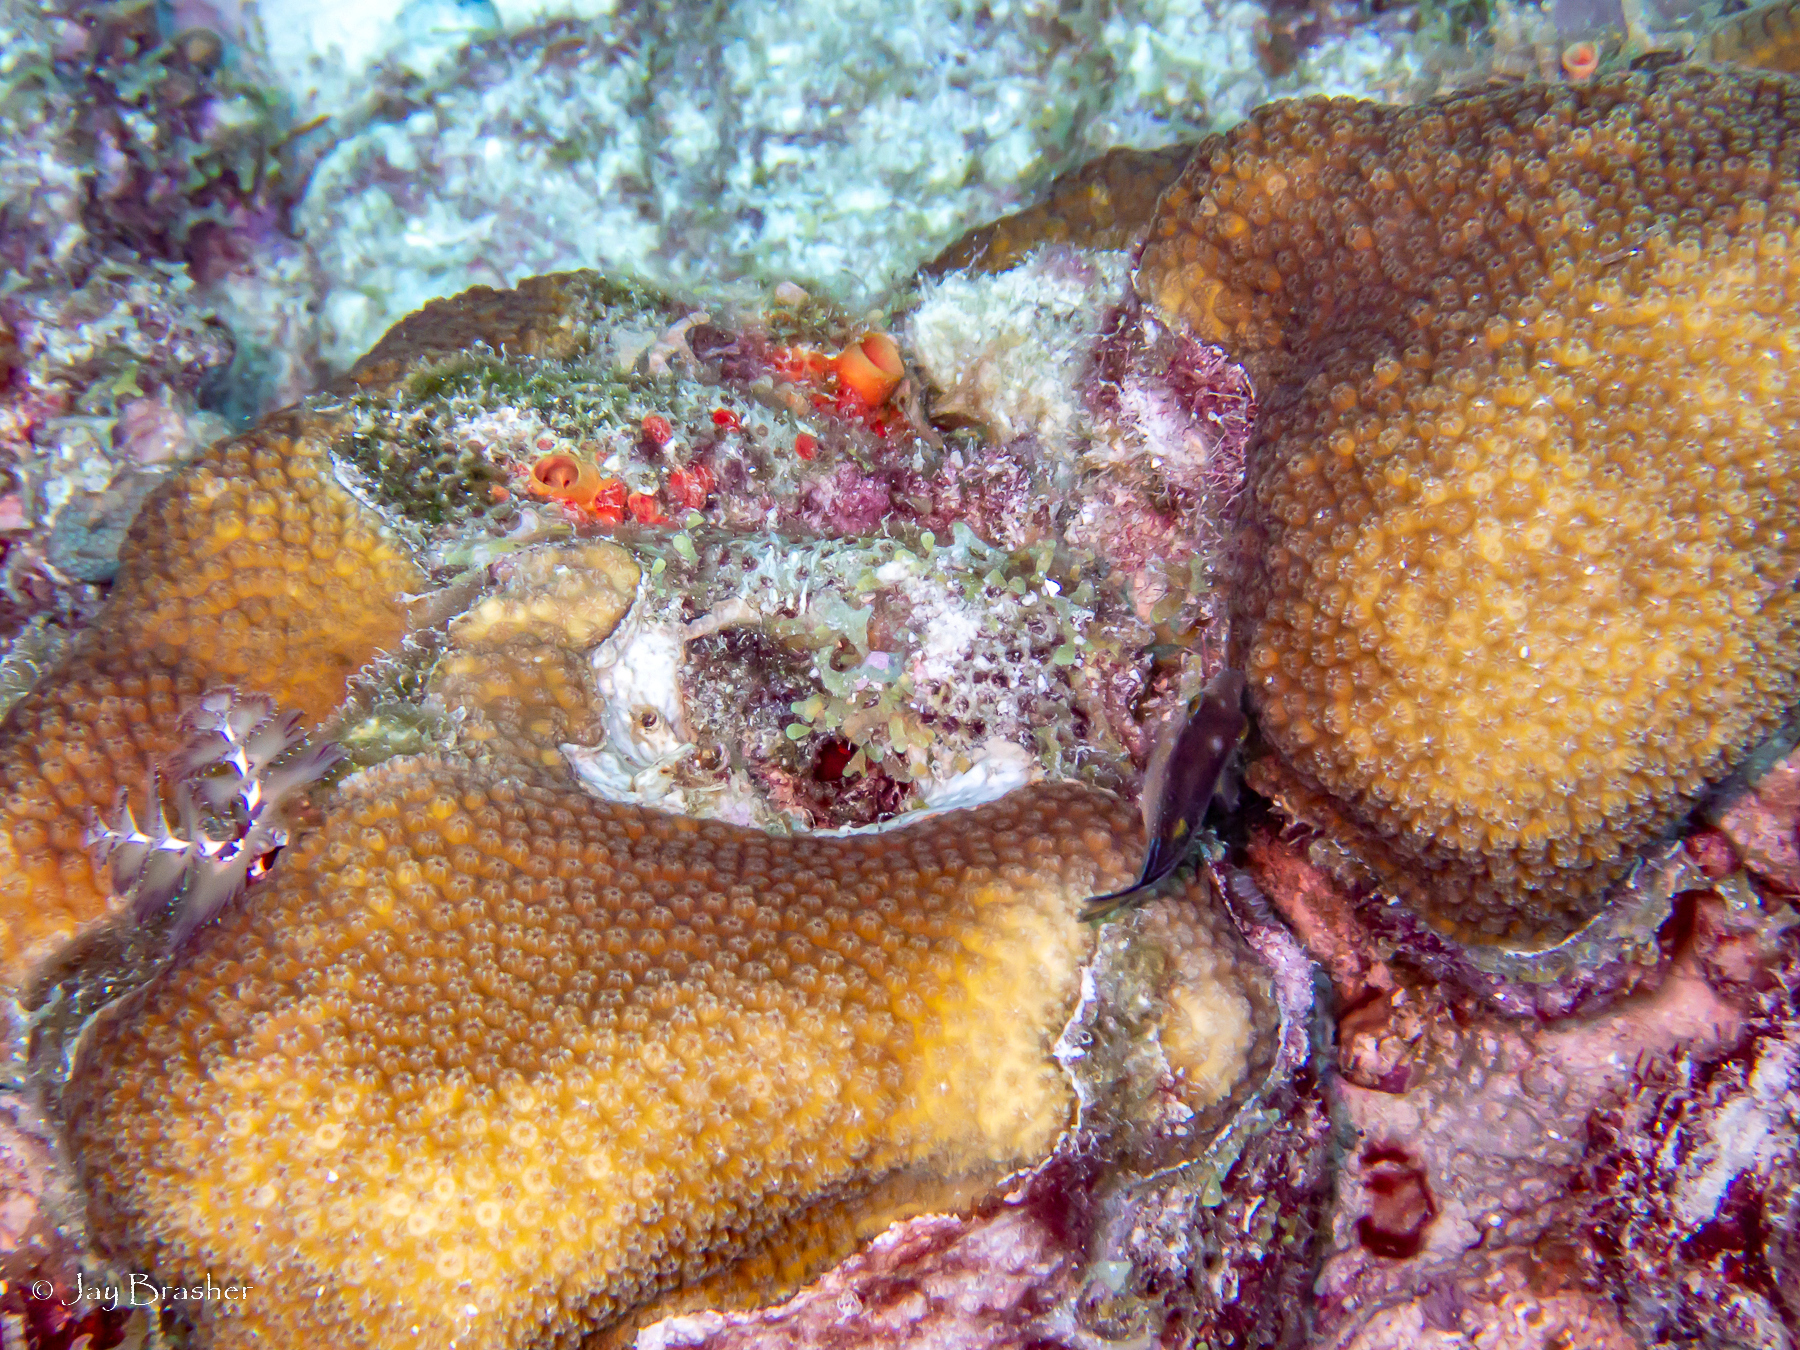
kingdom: Animalia
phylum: Chordata
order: Tetraodontiformes
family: Tetraodontidae
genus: Canthigaster
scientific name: Canthigaster rostrata
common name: Caribbean sharpnose-puffer
